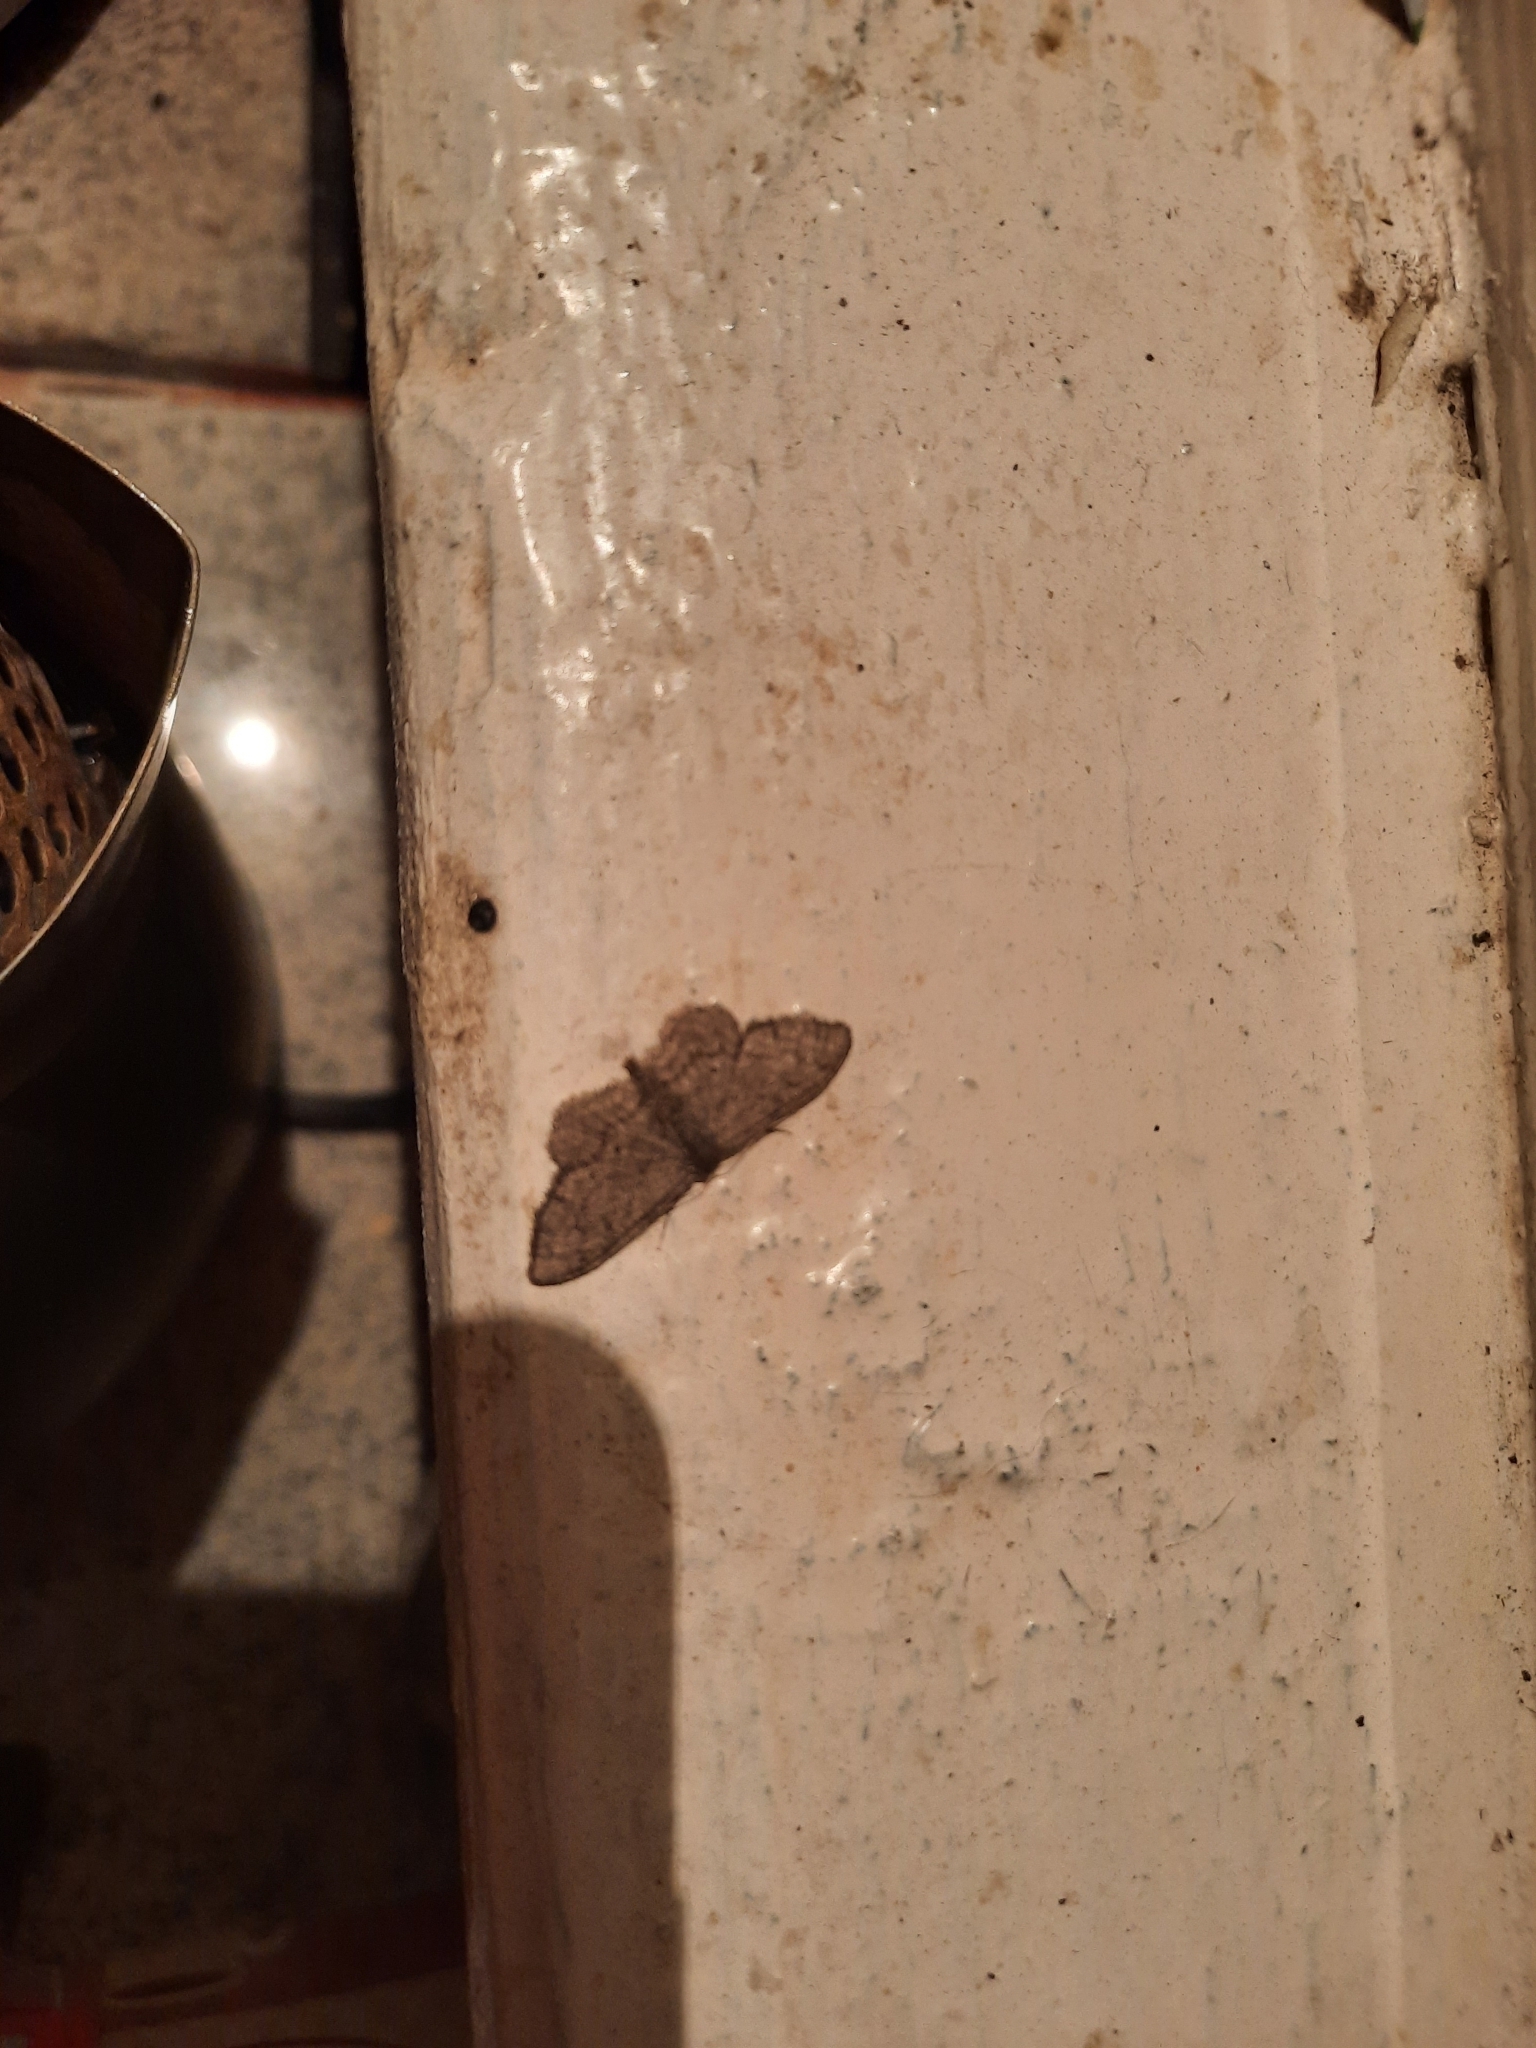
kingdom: Animalia
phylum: Arthropoda
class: Insecta
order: Lepidoptera
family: Geometridae
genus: Idaea
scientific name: Idaea descitaria
